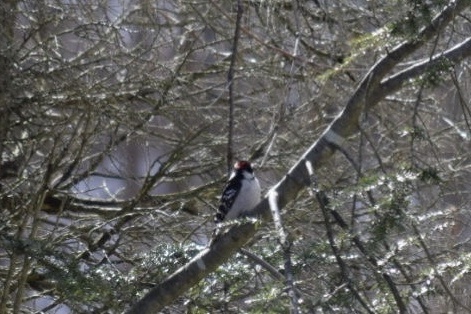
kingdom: Animalia
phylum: Chordata
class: Aves
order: Piciformes
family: Picidae
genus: Dryobates
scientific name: Dryobates pubescens
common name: Downy woodpecker
